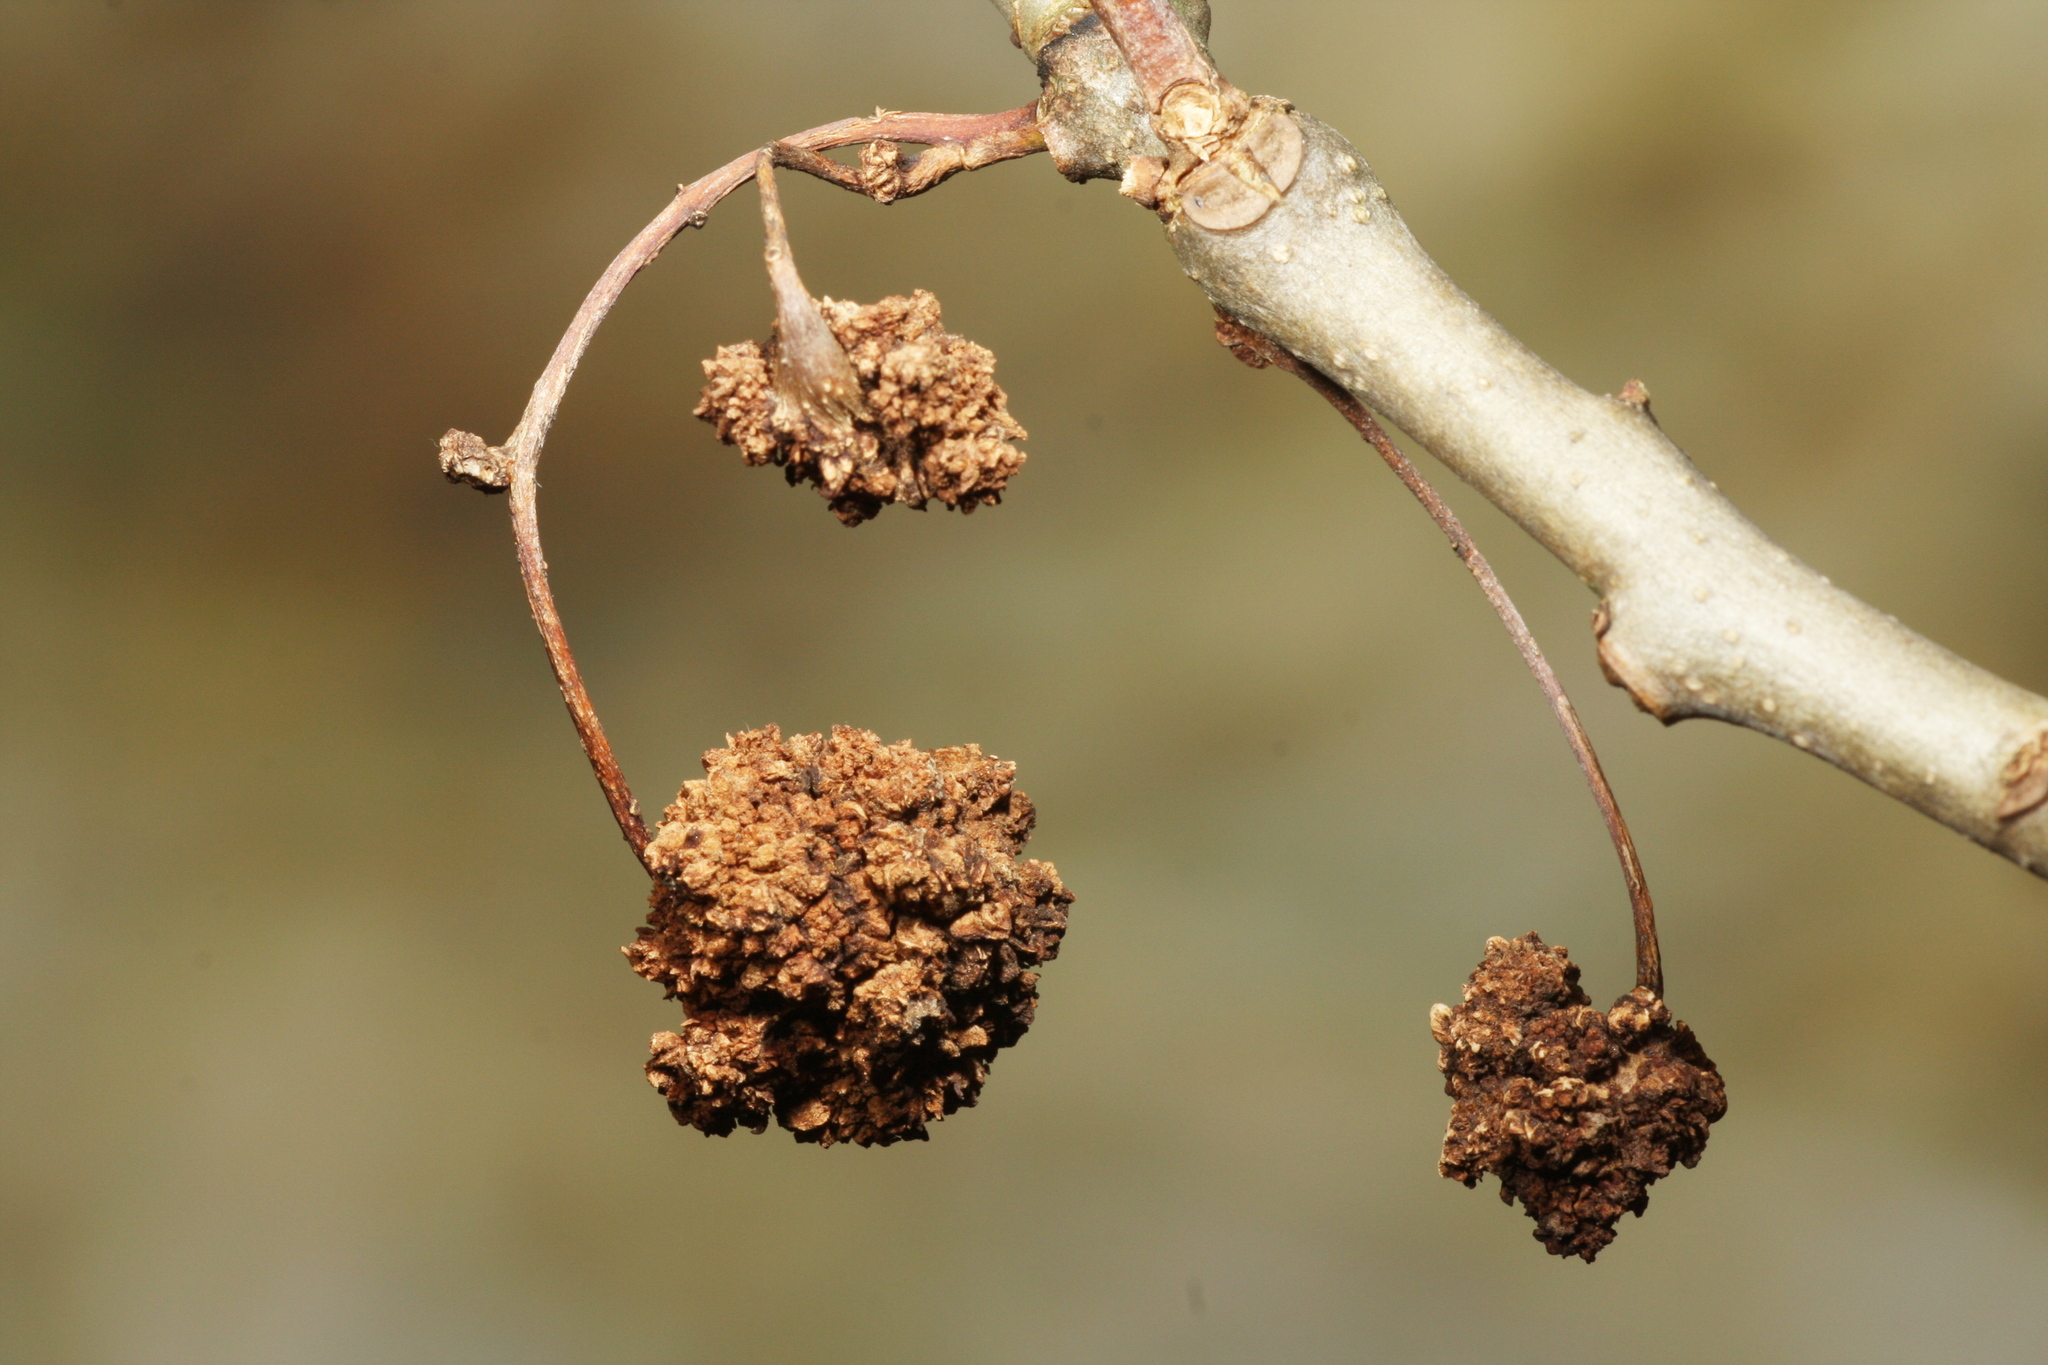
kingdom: Animalia
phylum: Arthropoda
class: Arachnida
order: Trombidiformes
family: Eriophyidae
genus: Aceria
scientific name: Aceria fraxinivora
